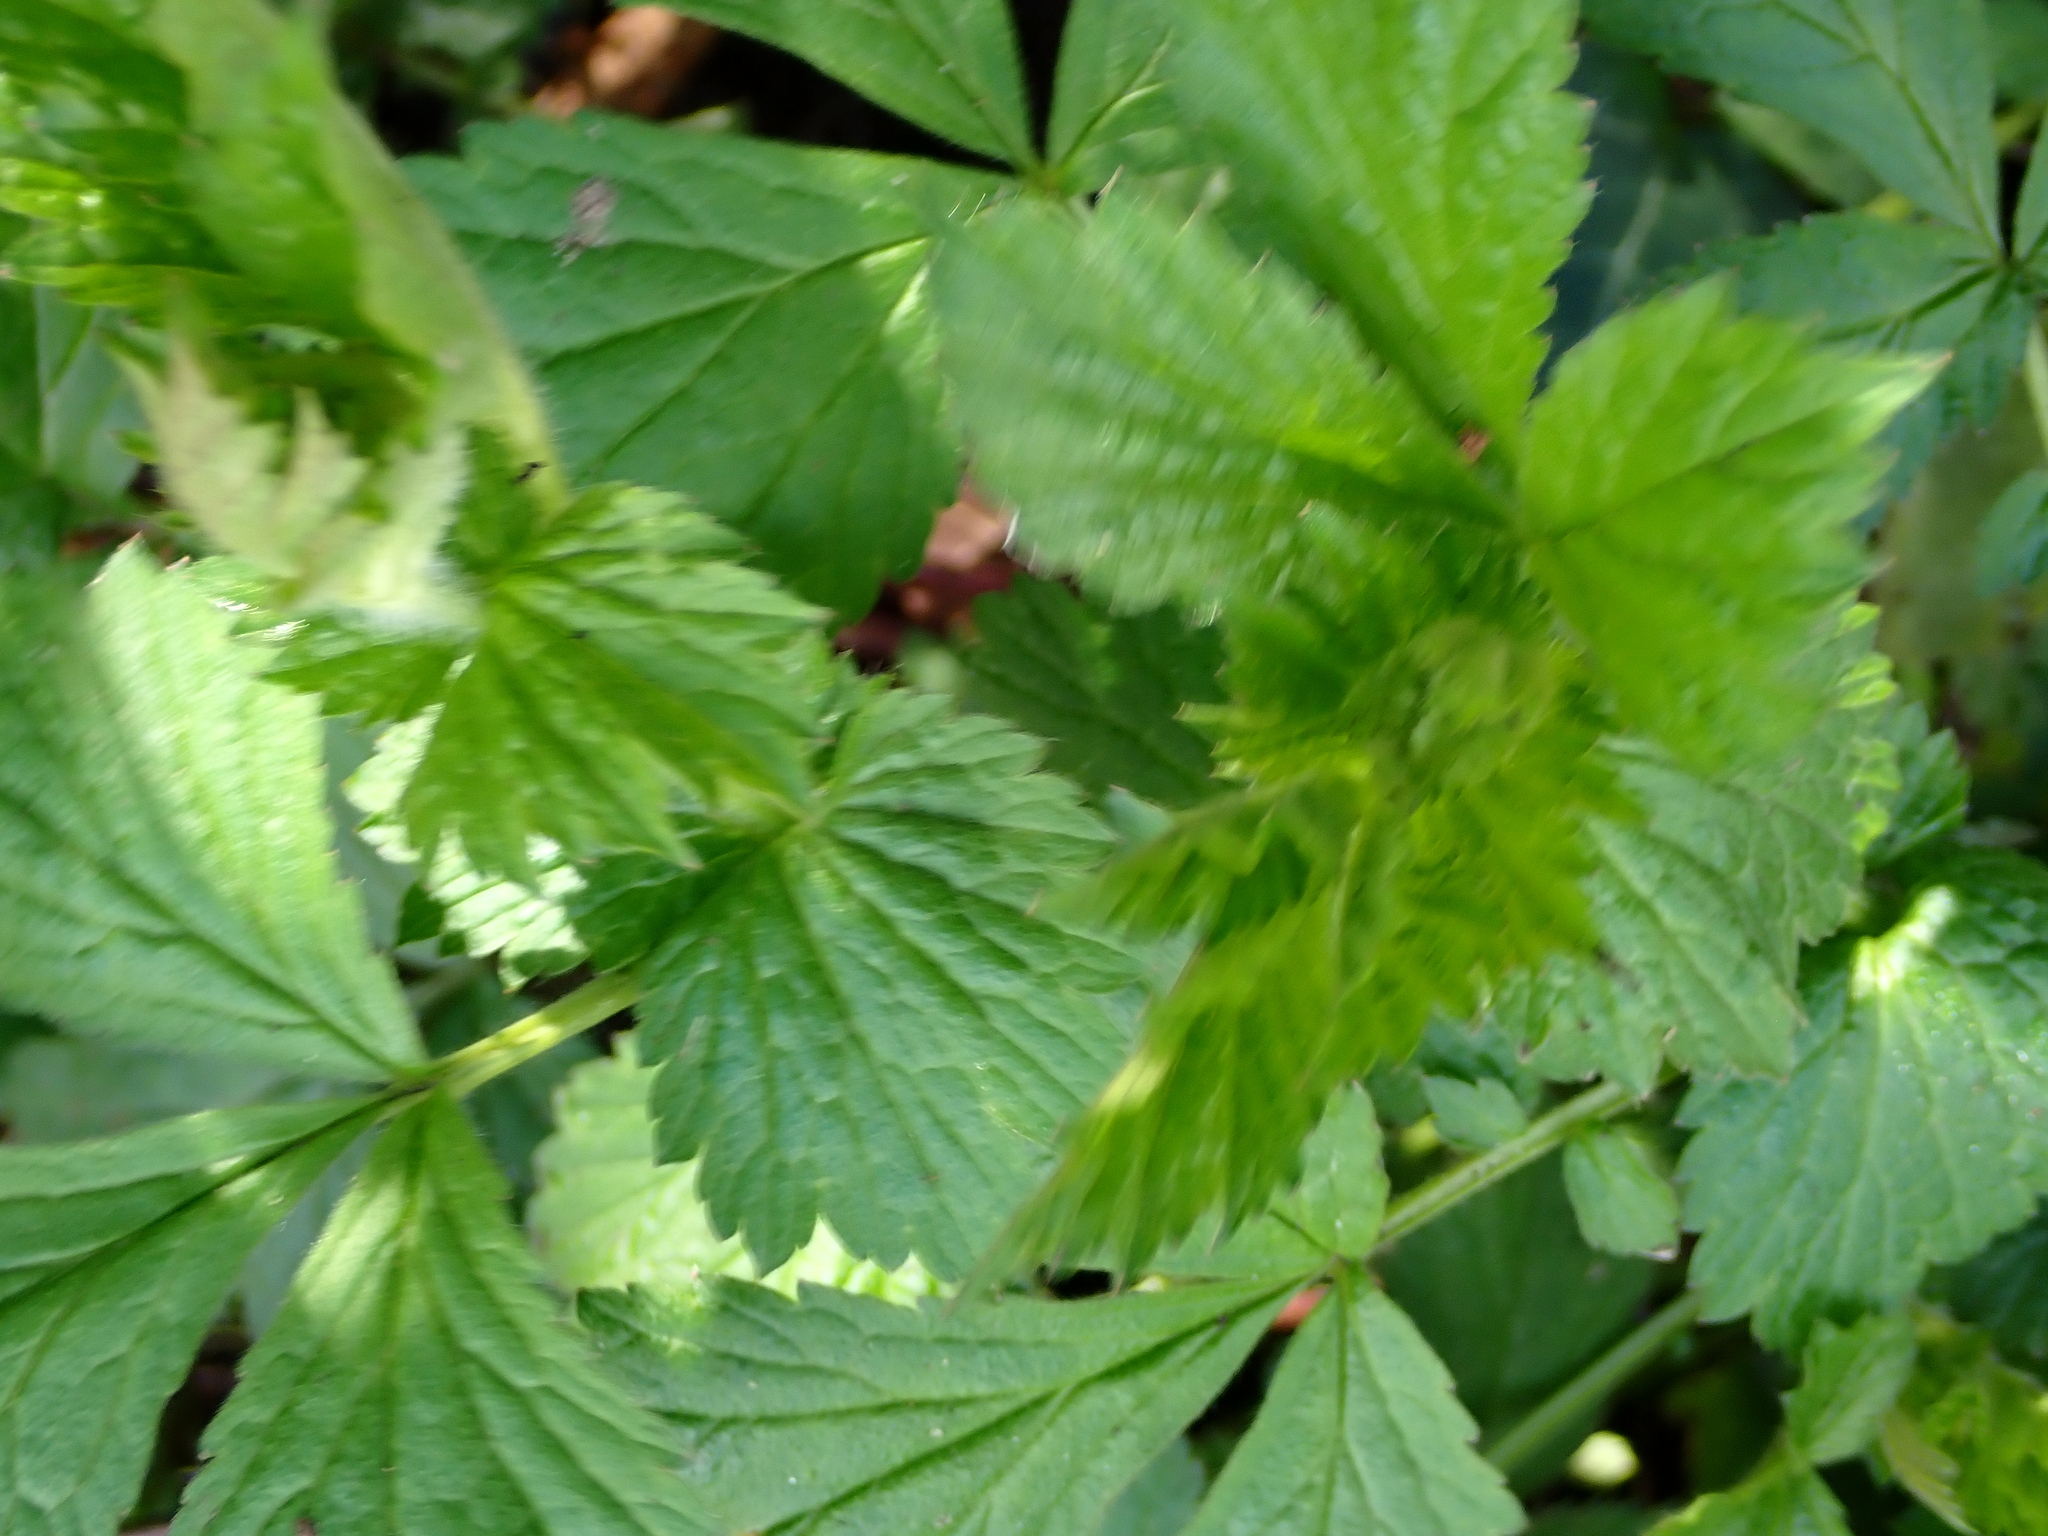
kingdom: Plantae
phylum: Tracheophyta
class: Magnoliopsida
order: Rosales
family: Rosaceae
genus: Geum
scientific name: Geum urbanum
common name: Wood avens
